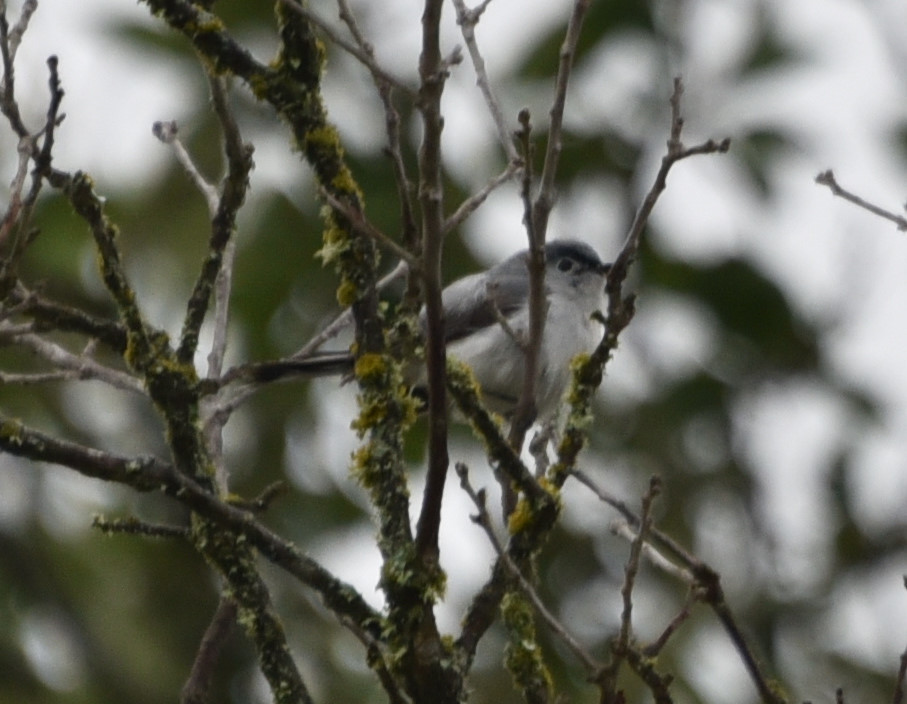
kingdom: Animalia
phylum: Chordata
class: Aves
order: Passeriformes
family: Polioptilidae
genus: Polioptila
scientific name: Polioptila caerulea
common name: Blue-gray gnatcatcher
